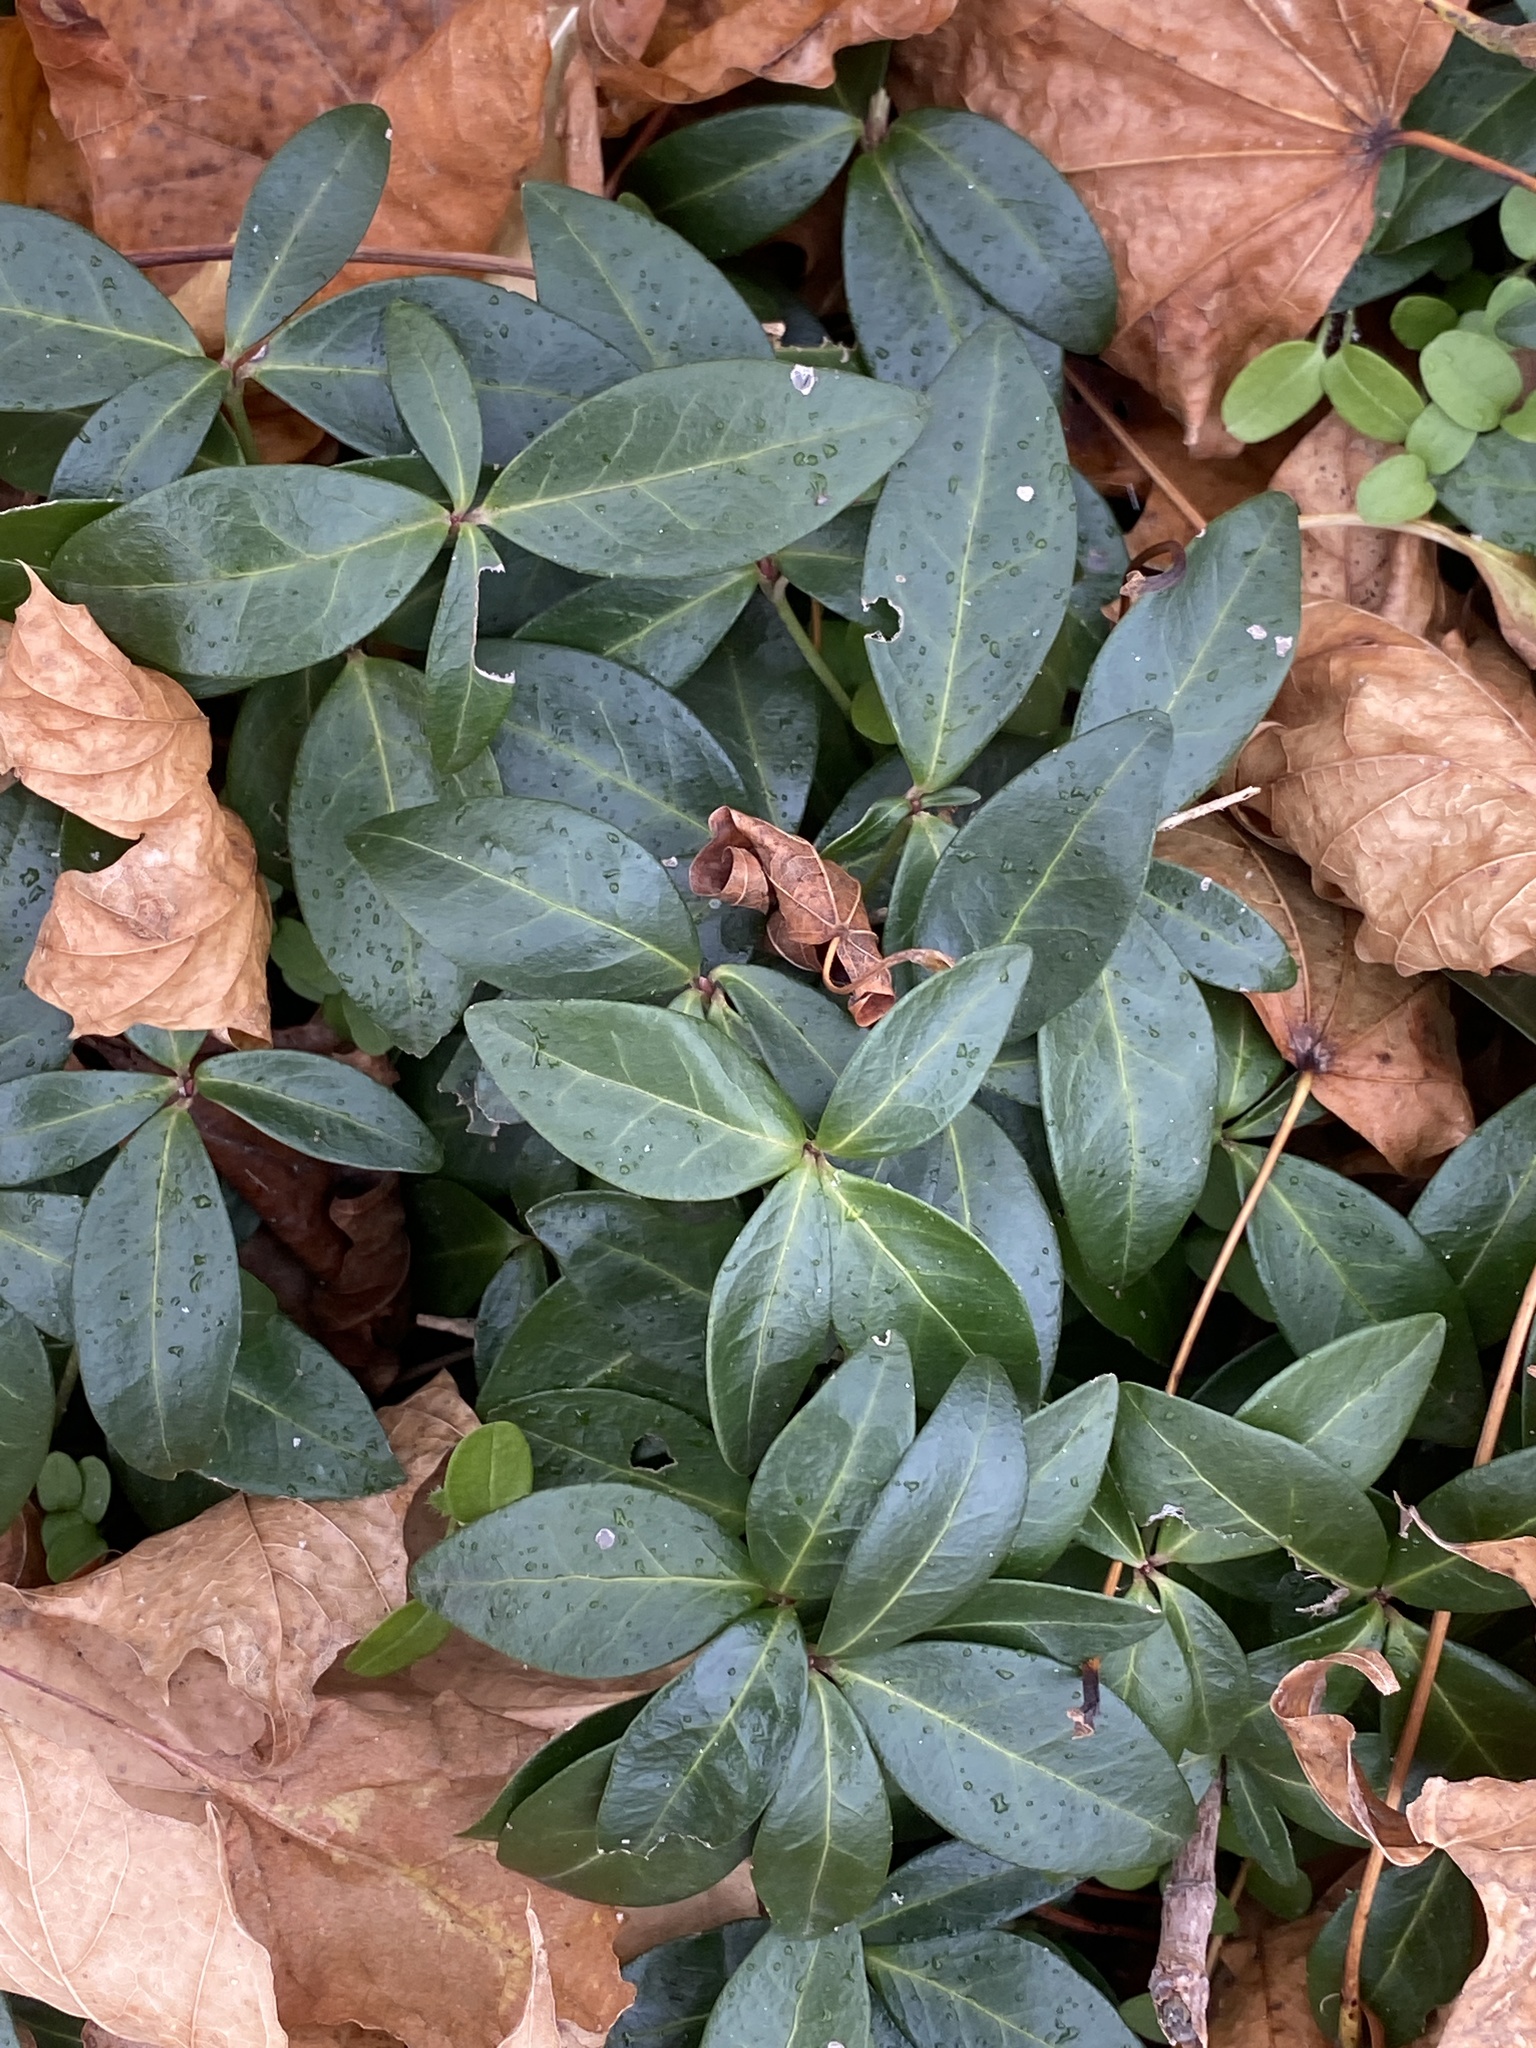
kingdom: Plantae
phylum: Tracheophyta
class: Magnoliopsida
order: Gentianales
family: Apocynaceae
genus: Vinca
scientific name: Vinca minor
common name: Lesser periwinkle
